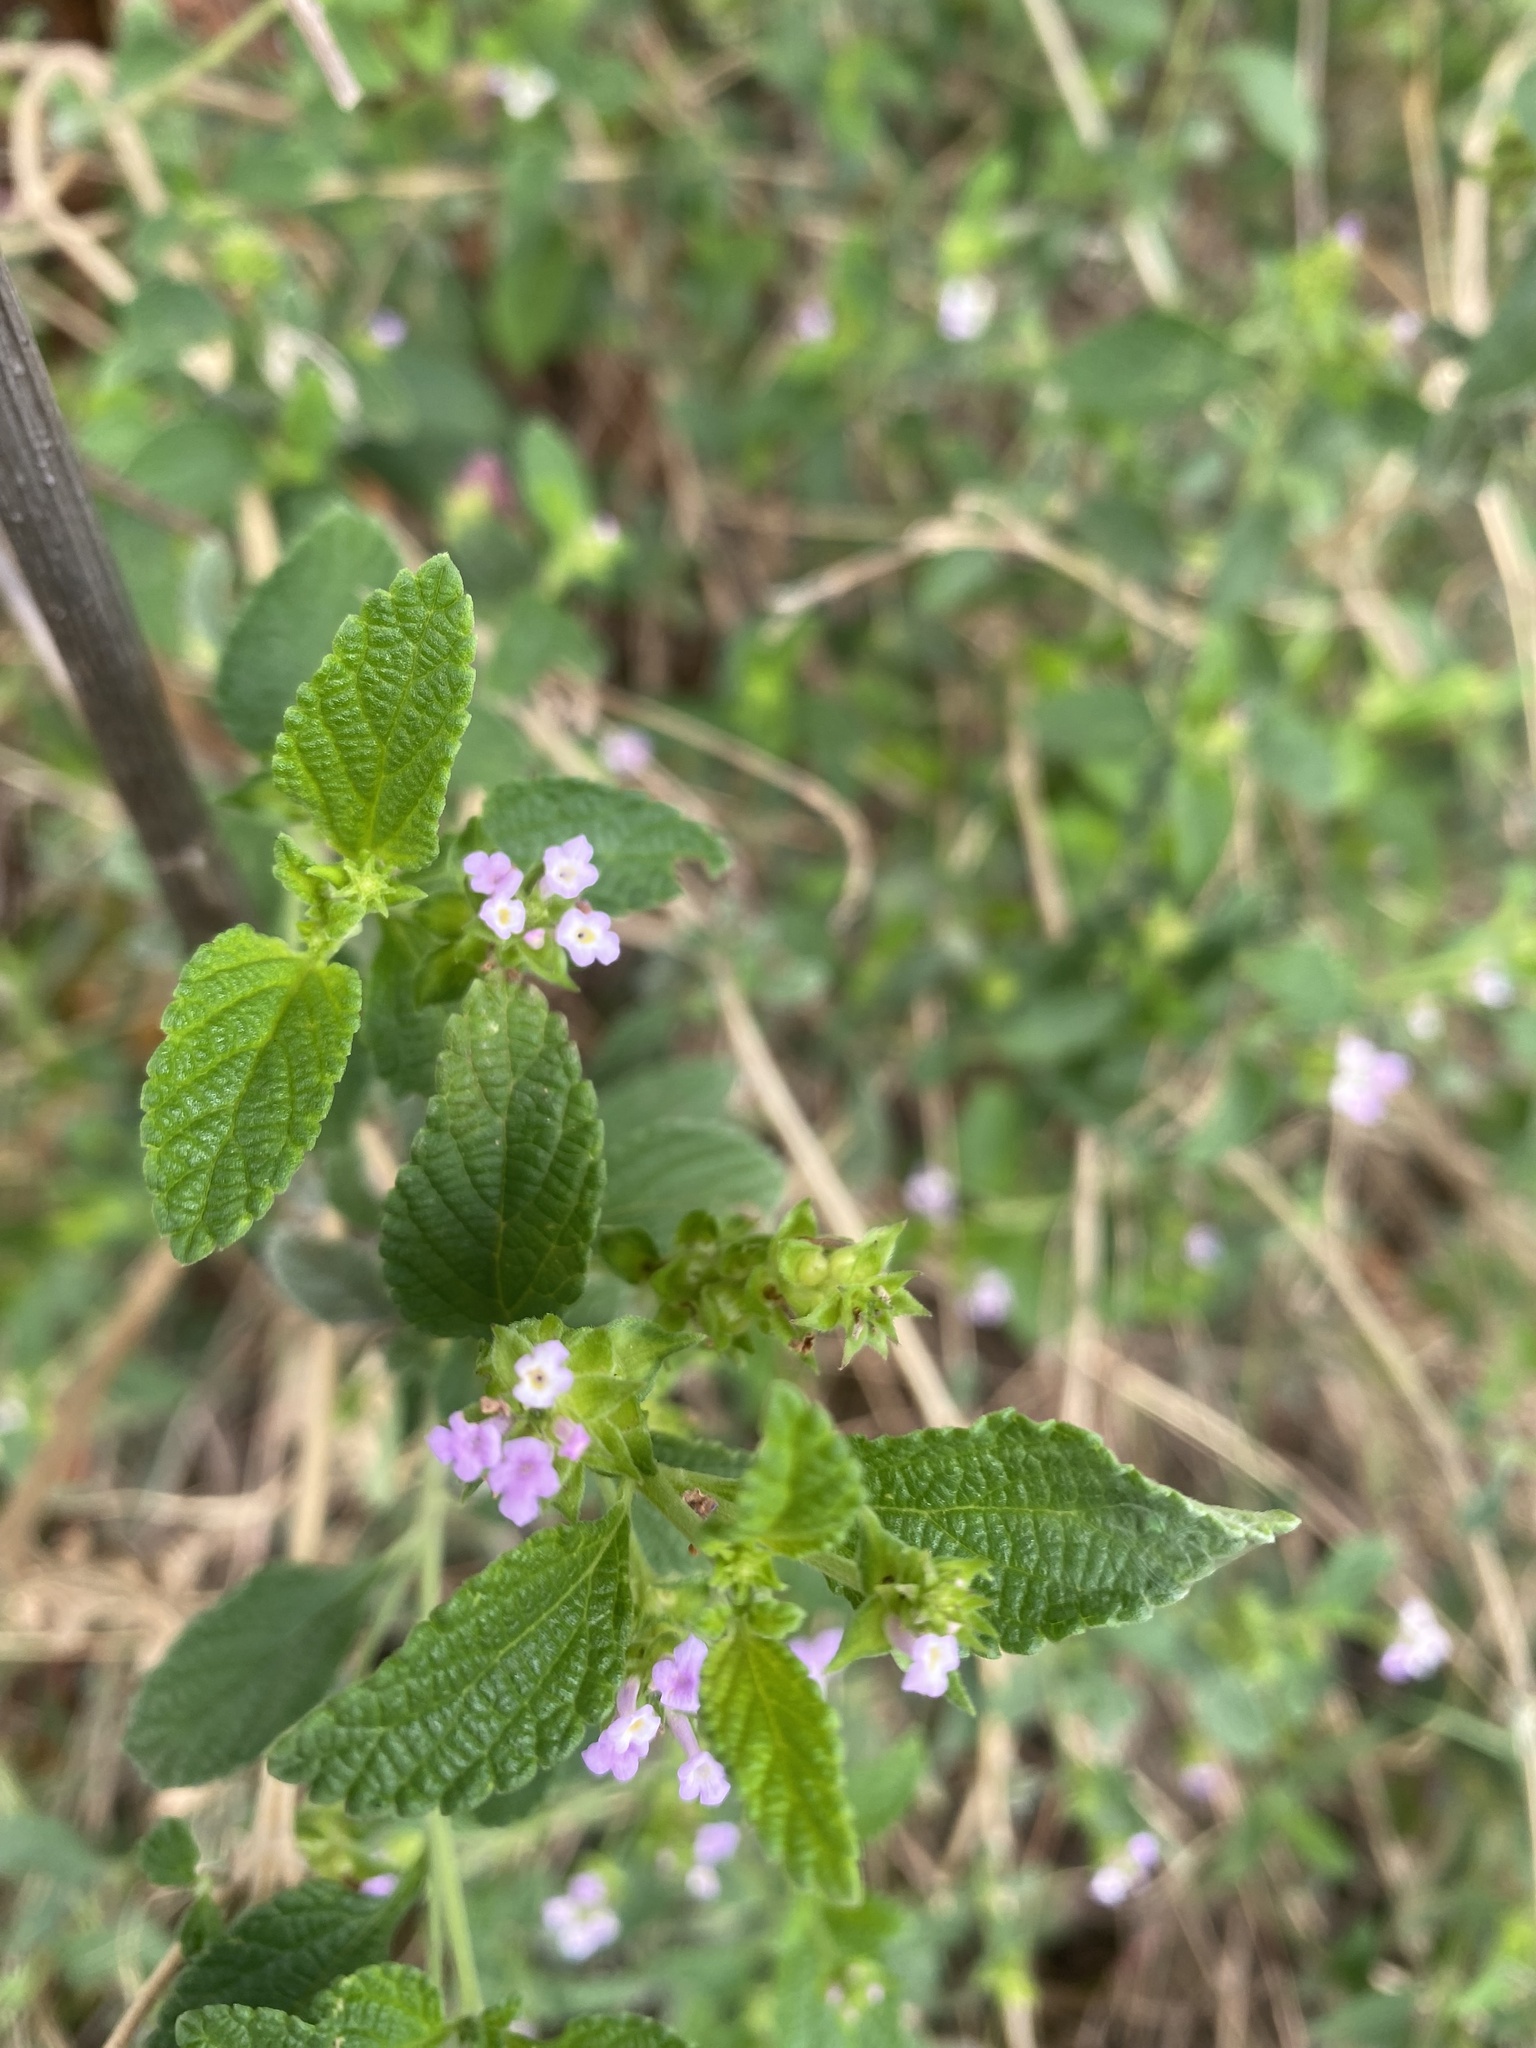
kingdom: Plantae
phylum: Tracheophyta
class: Magnoliopsida
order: Lamiales
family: Verbenaceae
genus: Lantana
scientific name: Lantana rugosa
